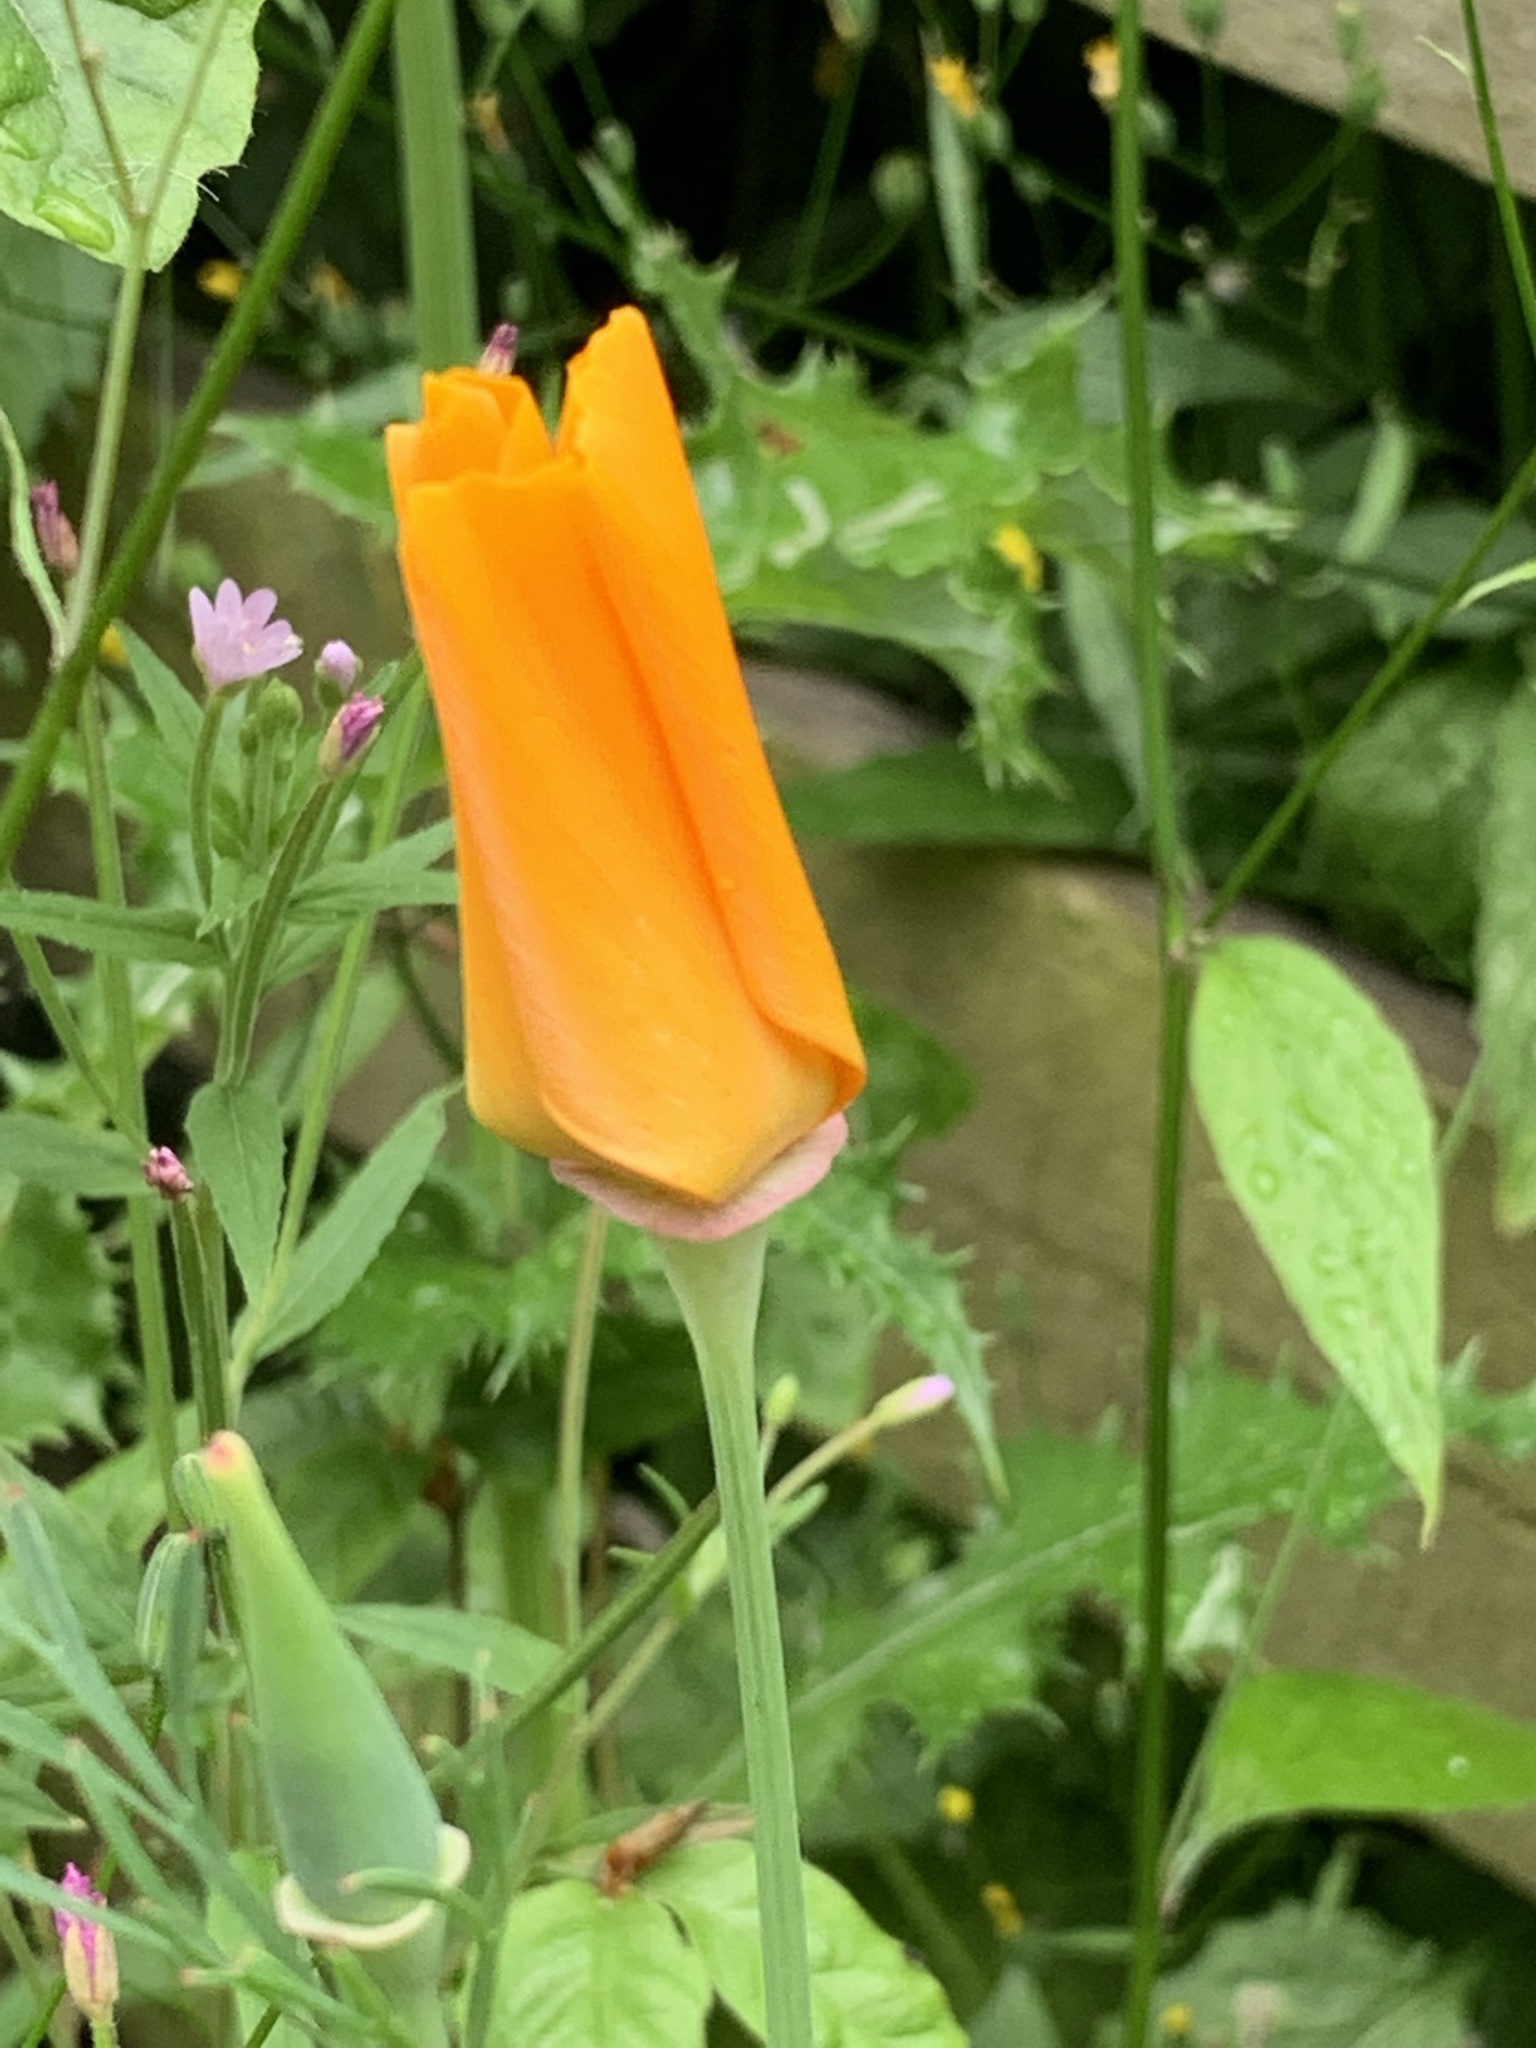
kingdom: Plantae
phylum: Tracheophyta
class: Magnoliopsida
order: Ranunculales
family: Papaveraceae
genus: Eschscholzia
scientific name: Eschscholzia californica
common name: California poppy
